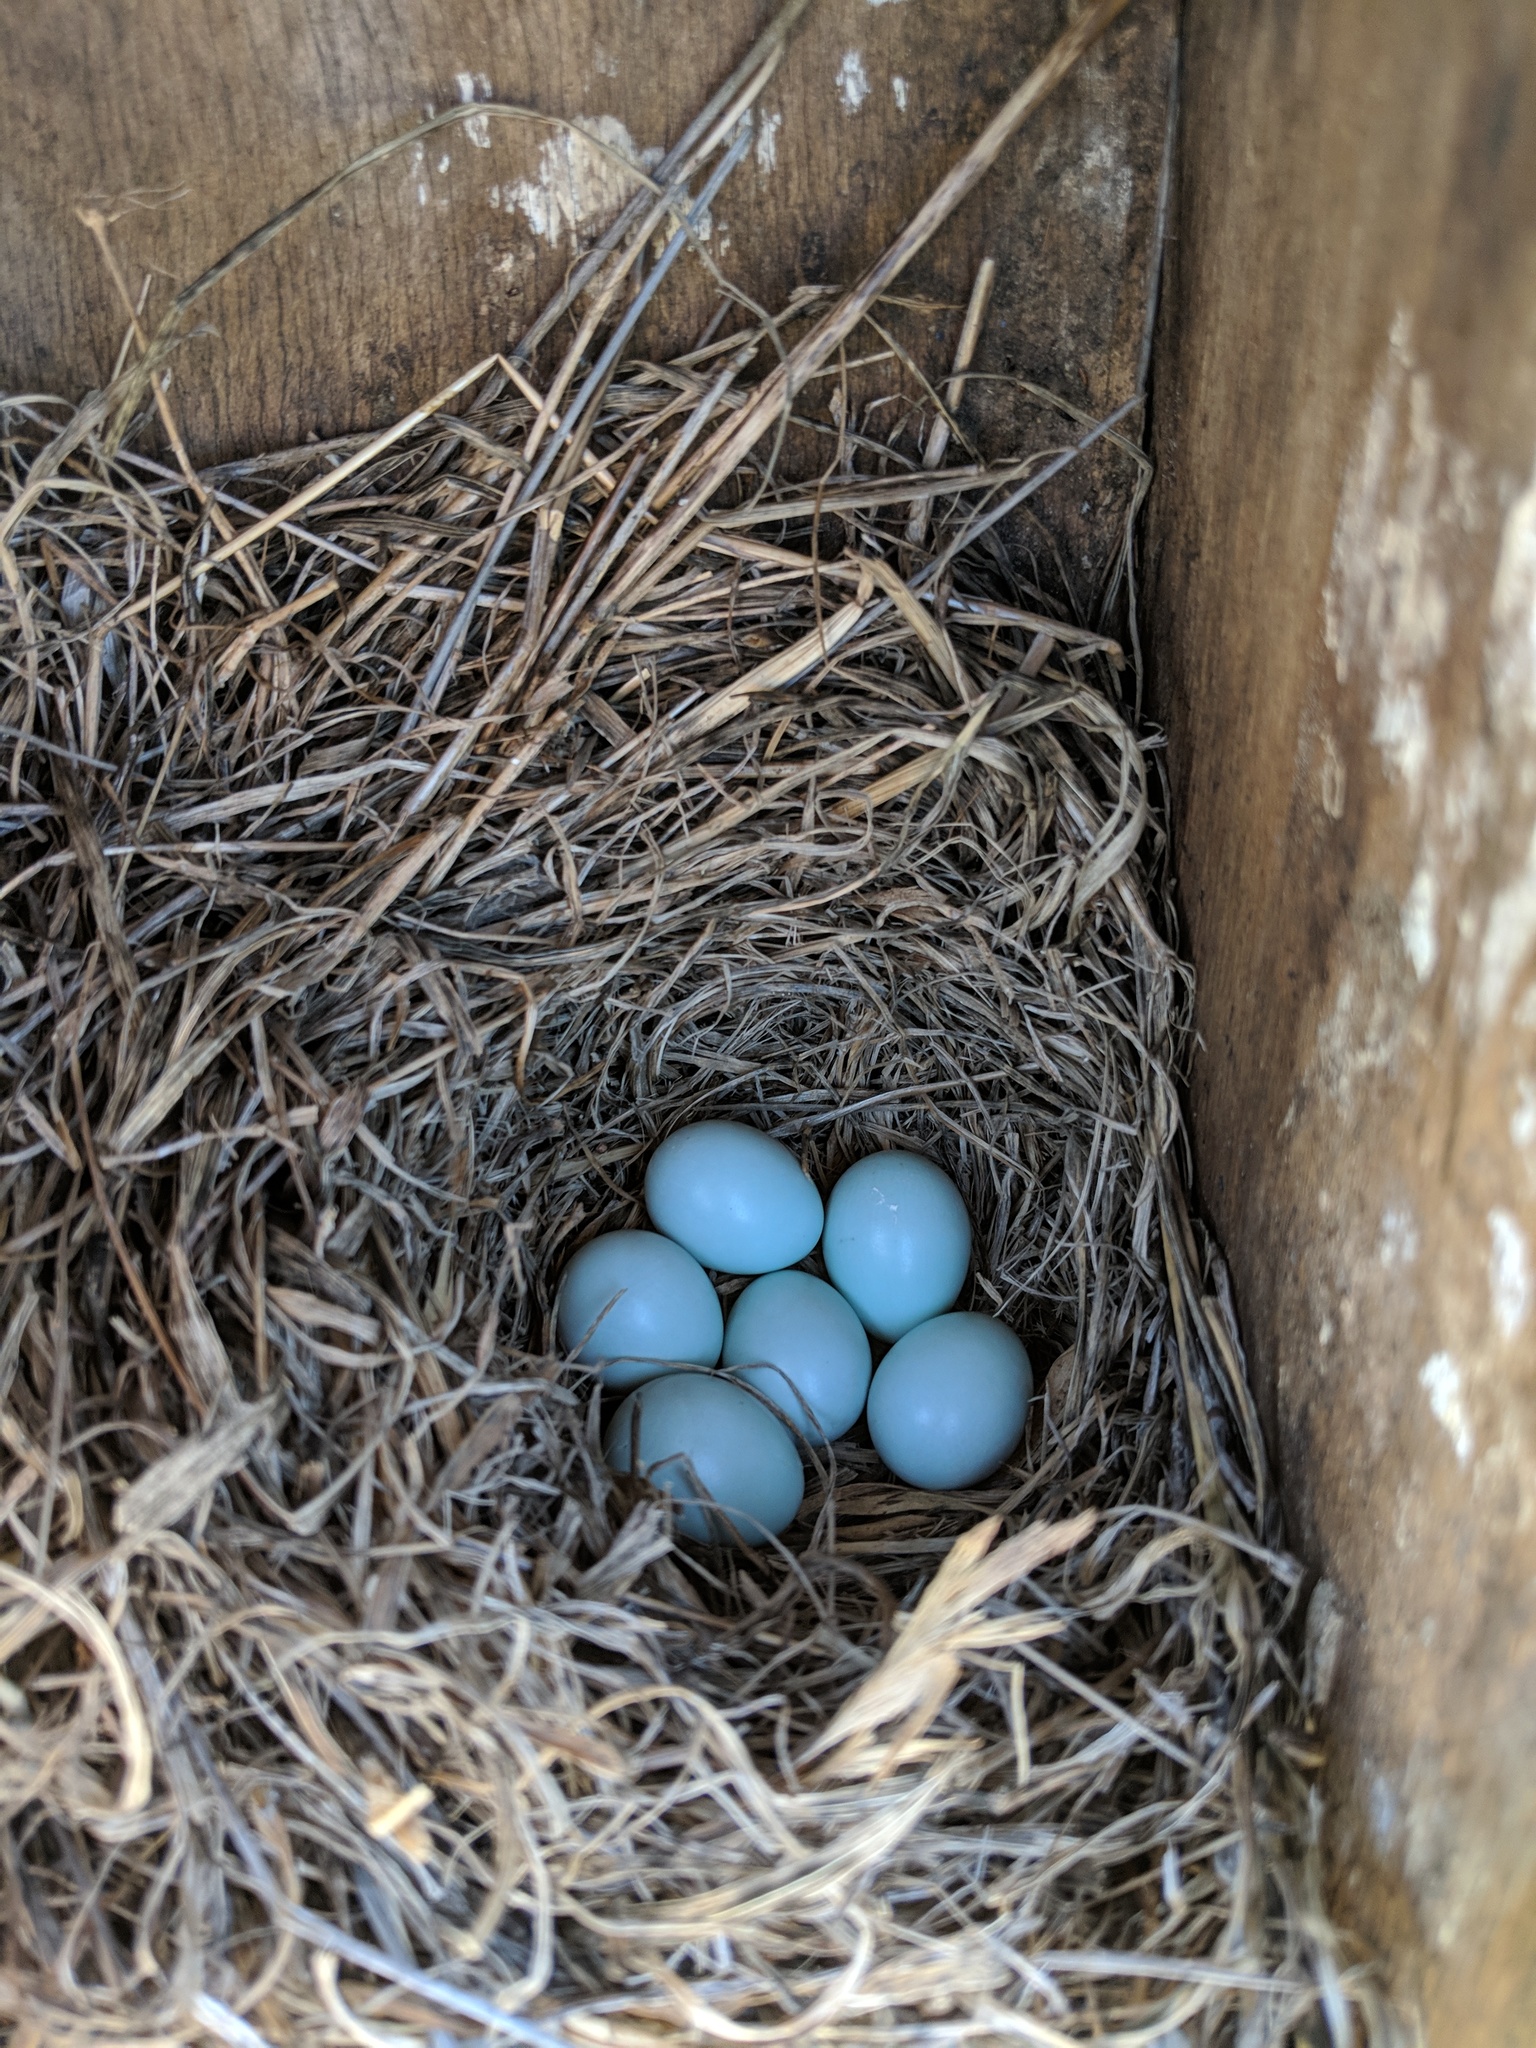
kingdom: Animalia
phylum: Chordata
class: Aves
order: Passeriformes
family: Turdidae
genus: Sialia
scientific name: Sialia mexicana
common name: Western bluebird
